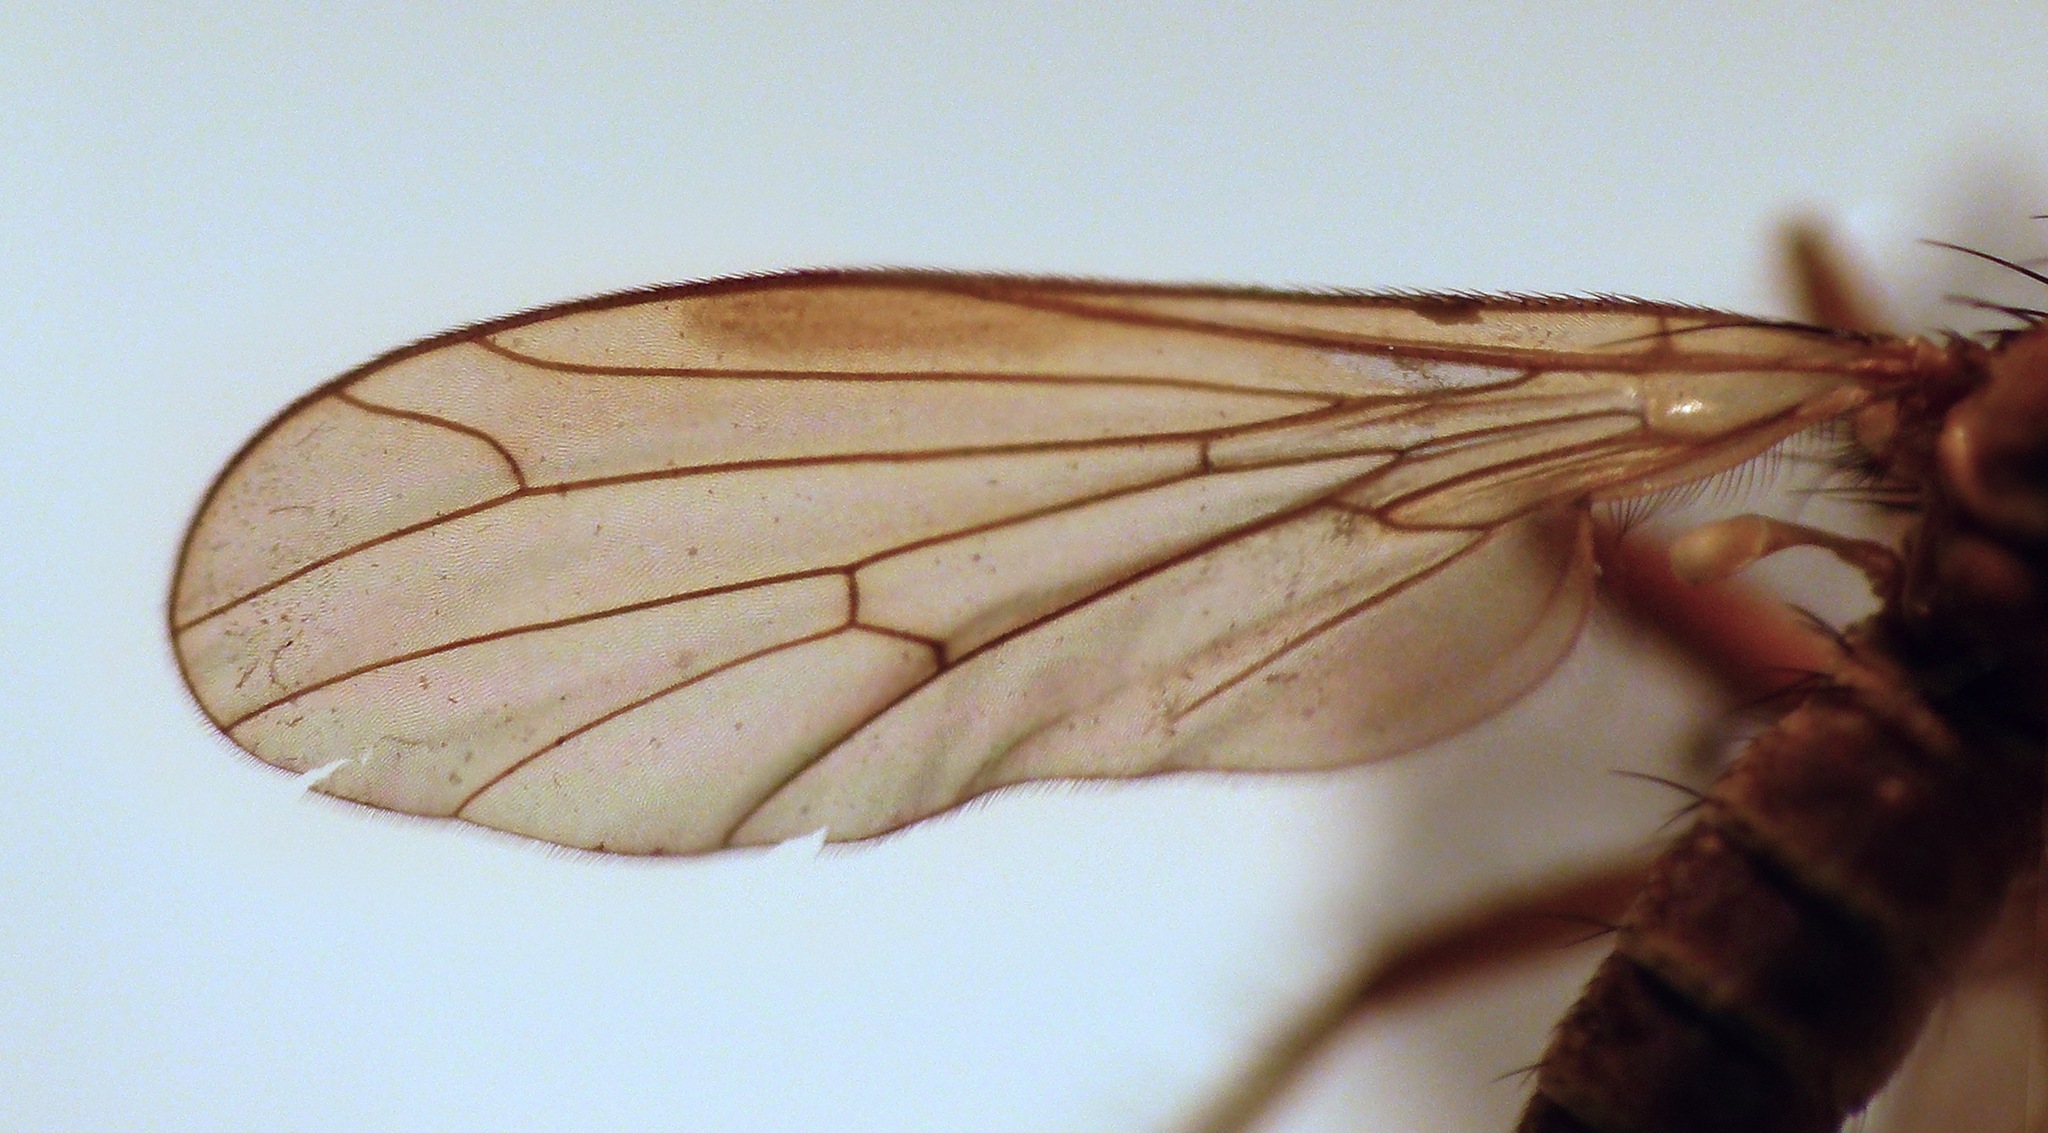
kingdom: Animalia
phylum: Arthropoda
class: Insecta
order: Diptera
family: Empididae
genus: Empidadelpha
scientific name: Empidadelpha torrentalis
